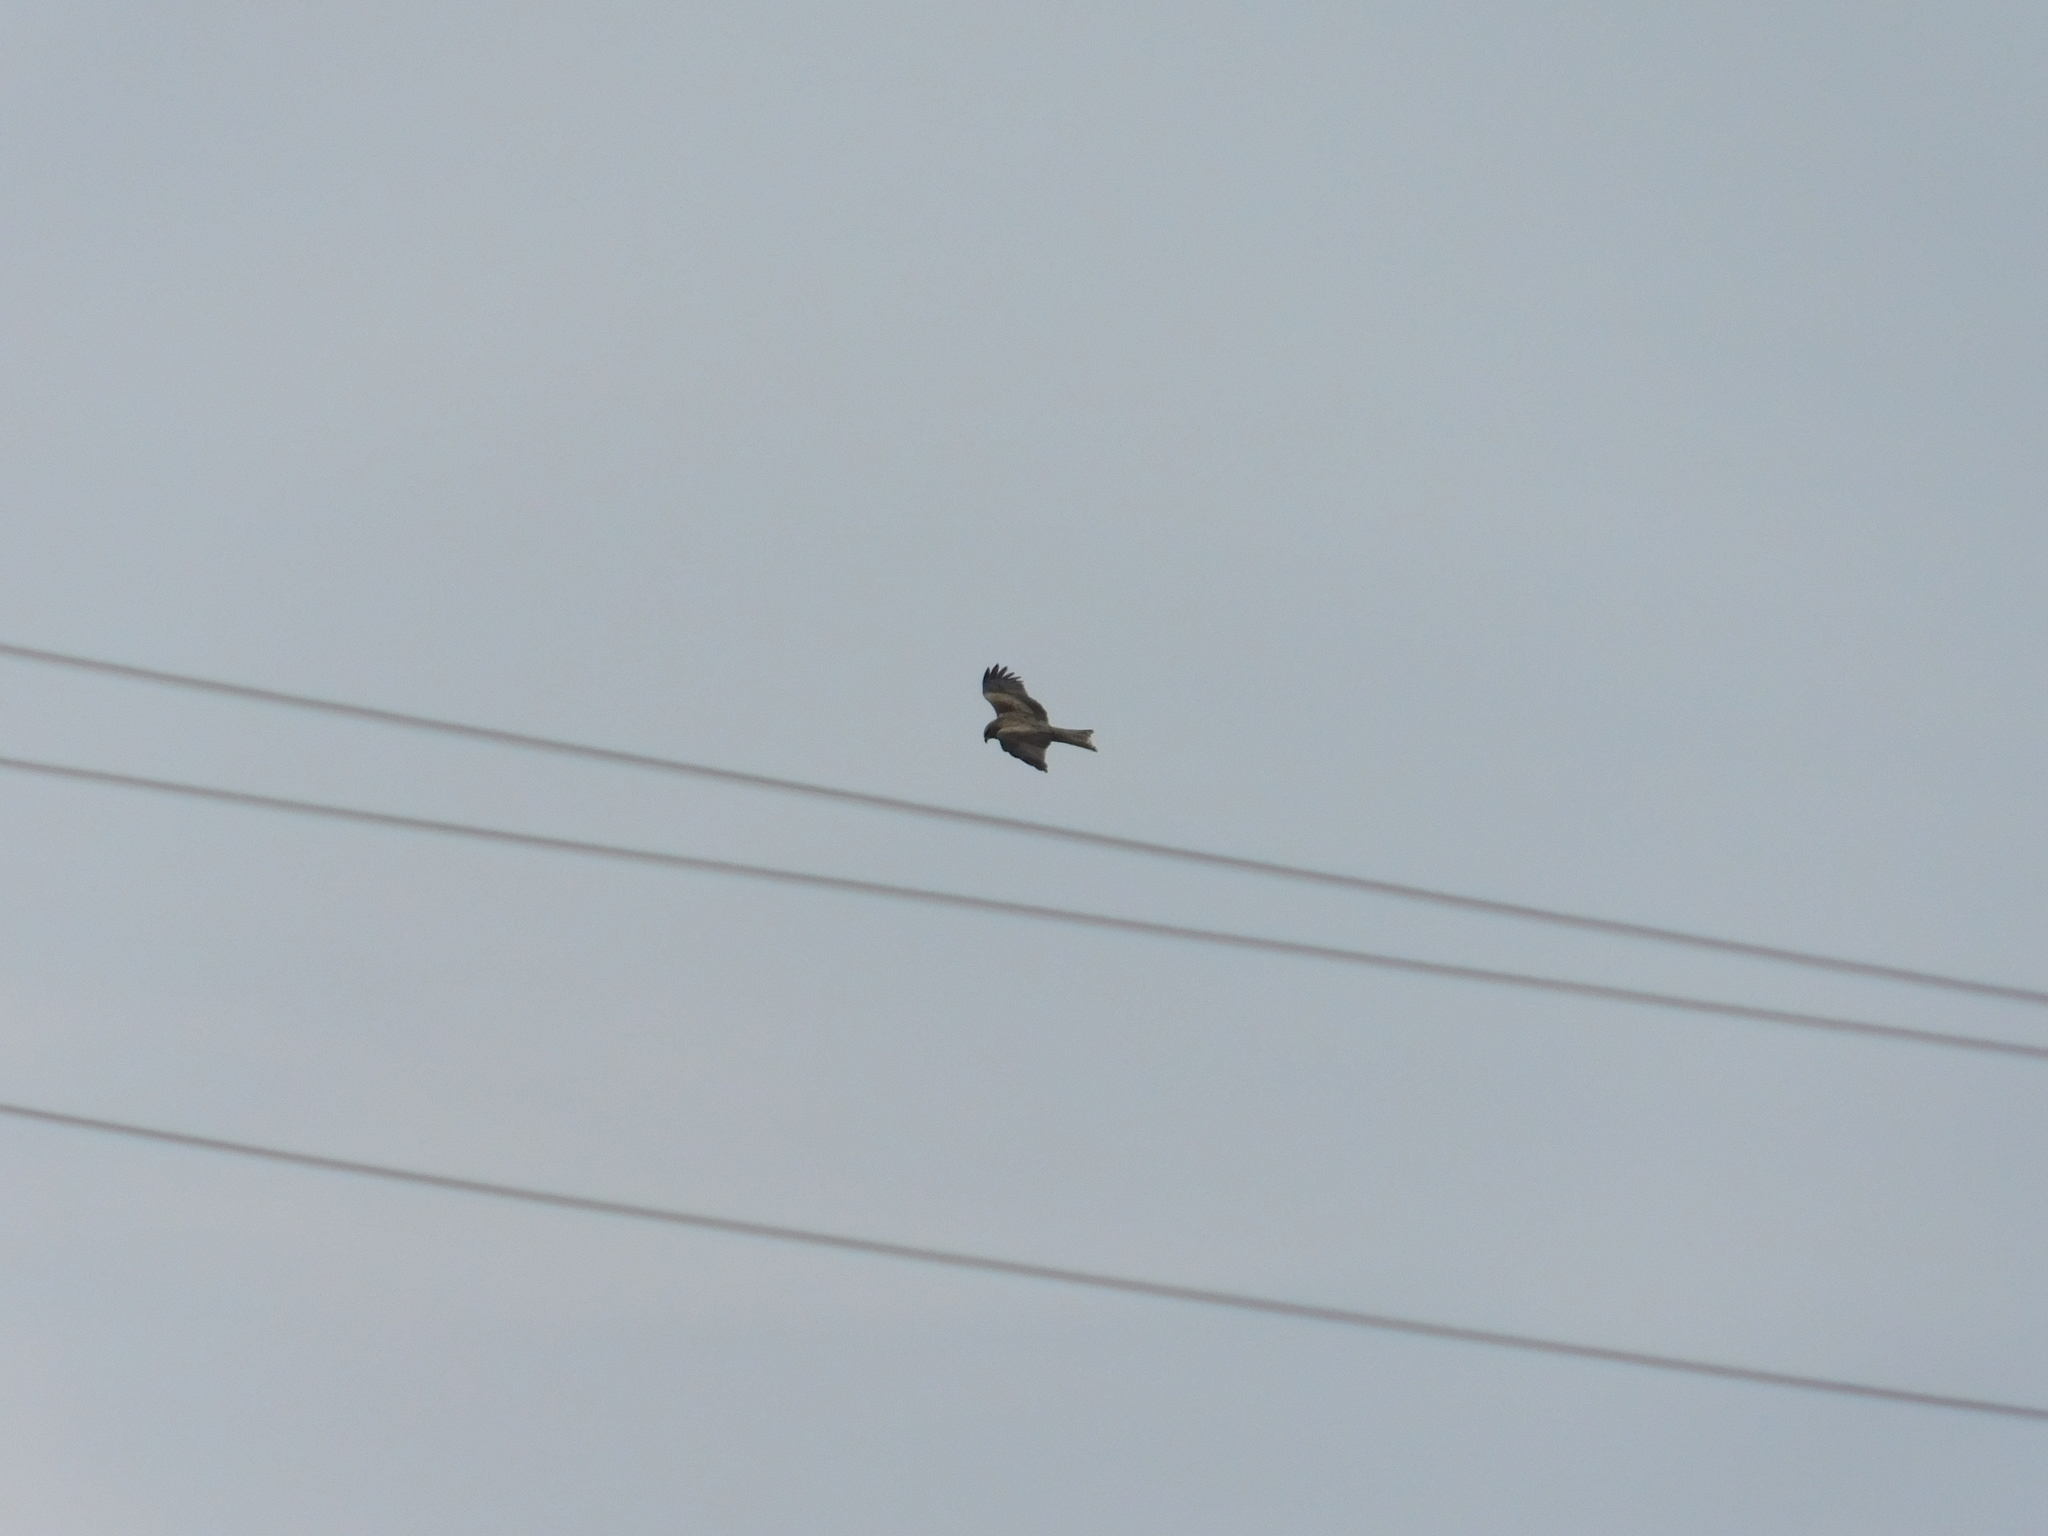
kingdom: Animalia
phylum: Chordata
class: Aves
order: Accipitriformes
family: Accipitridae
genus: Milvus
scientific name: Milvus migrans
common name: Black kite
